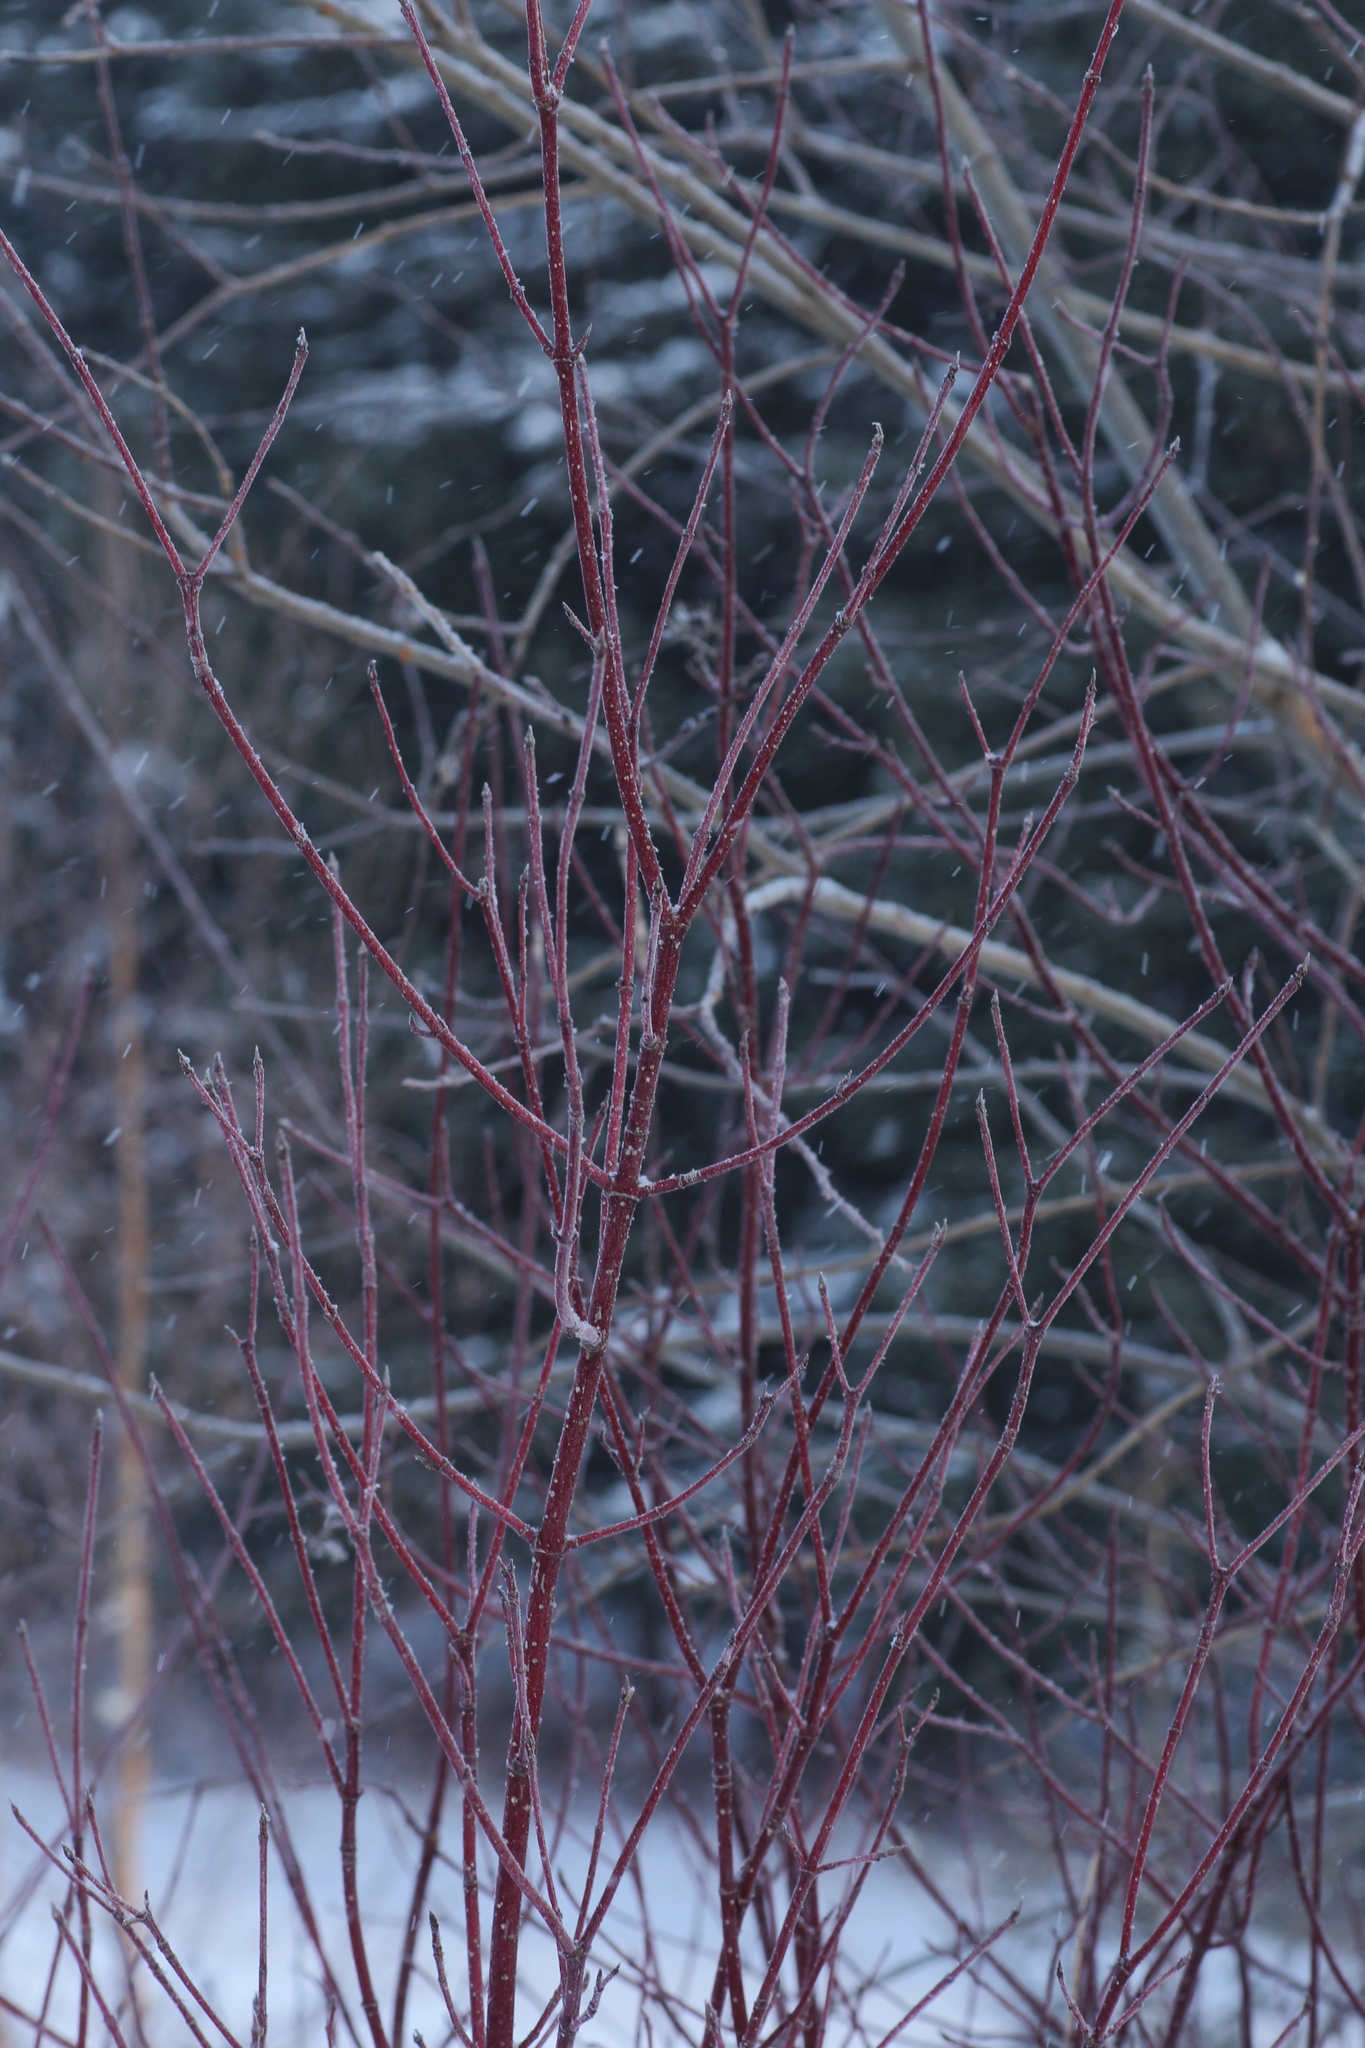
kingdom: Plantae
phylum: Tracheophyta
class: Magnoliopsida
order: Cornales
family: Cornaceae
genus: Cornus
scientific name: Cornus alba
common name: White dogwood
